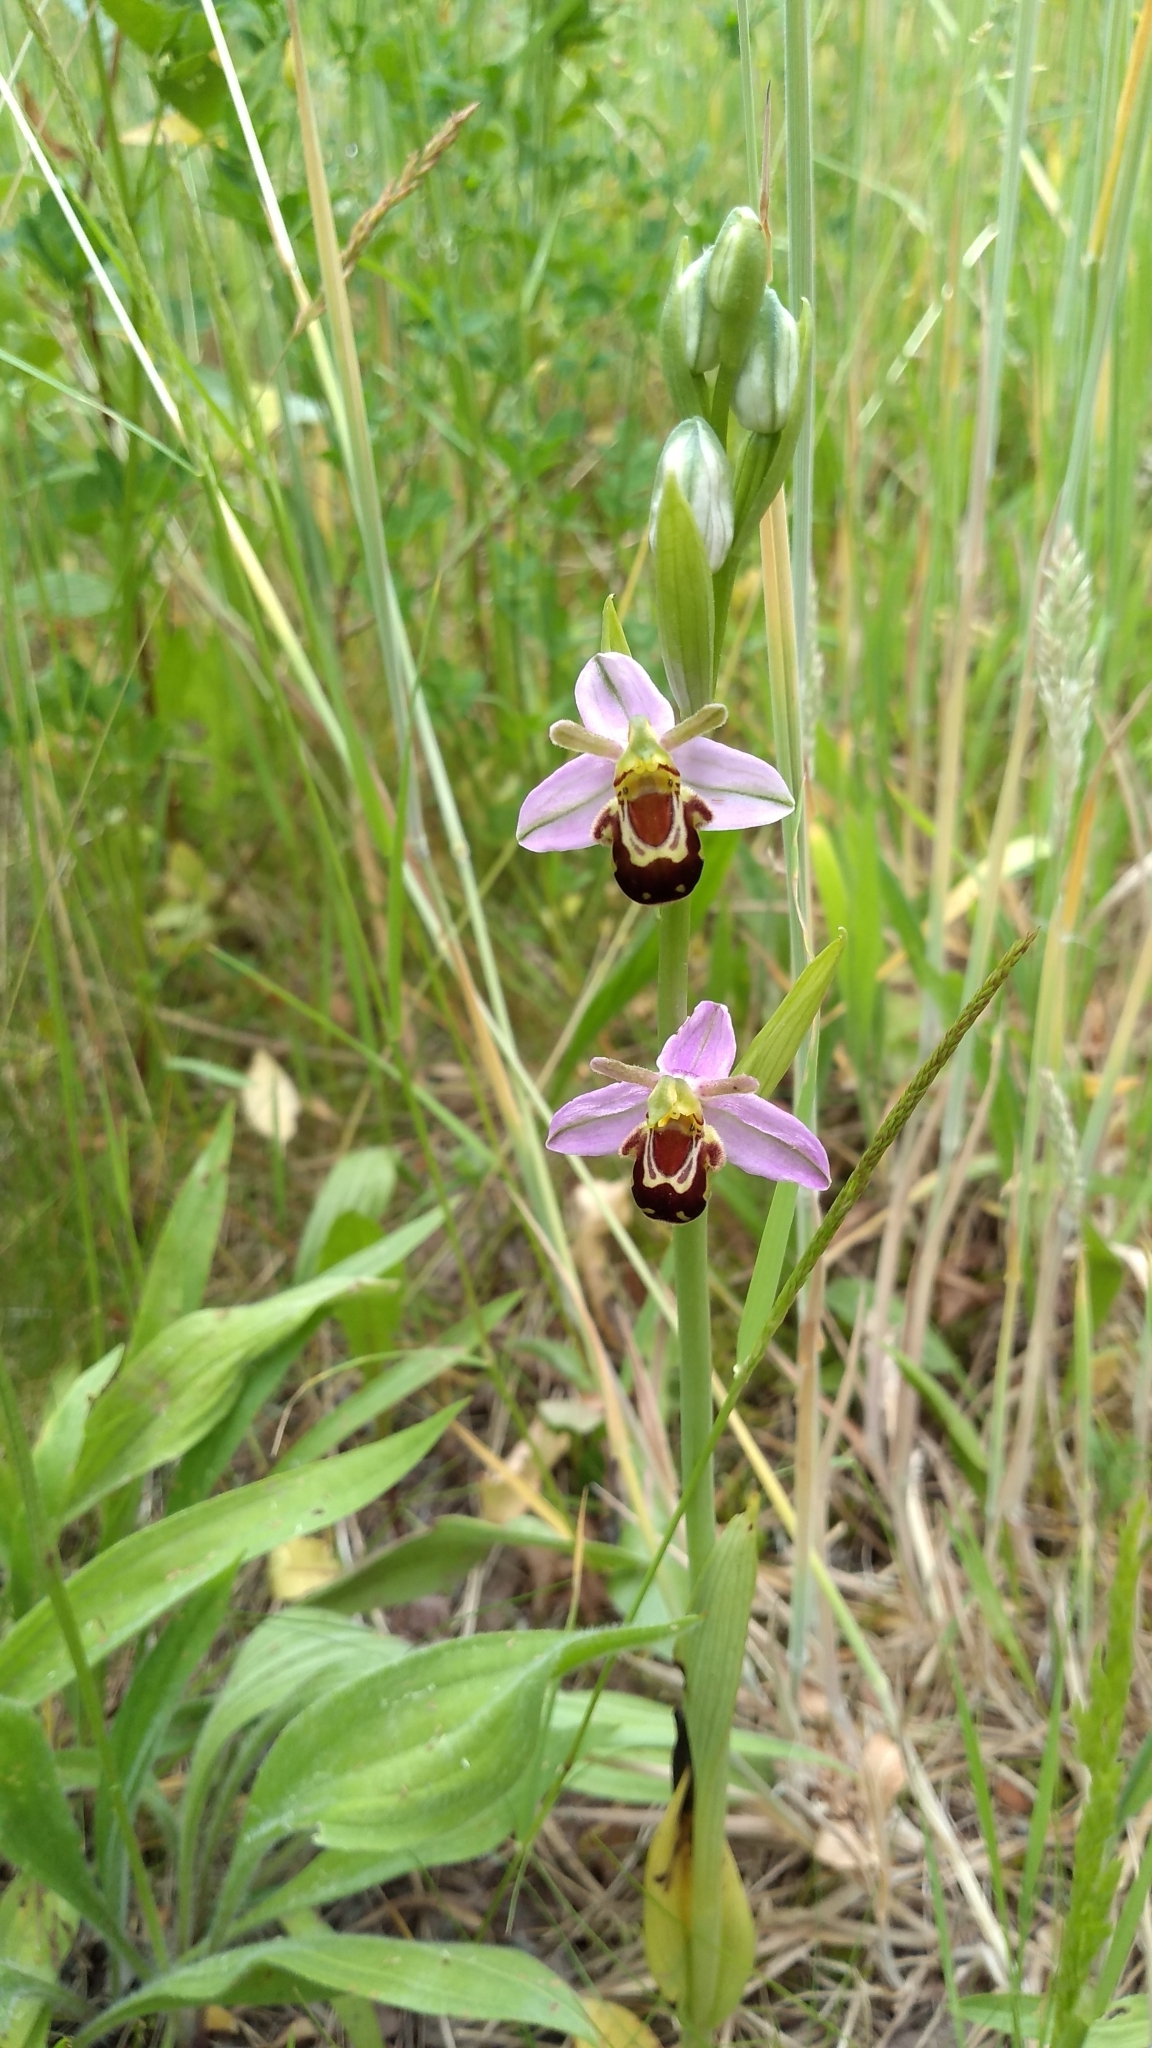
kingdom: Plantae
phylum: Tracheophyta
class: Liliopsida
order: Asparagales
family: Orchidaceae
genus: Ophrys
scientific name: Ophrys apifera
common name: Bee orchid
